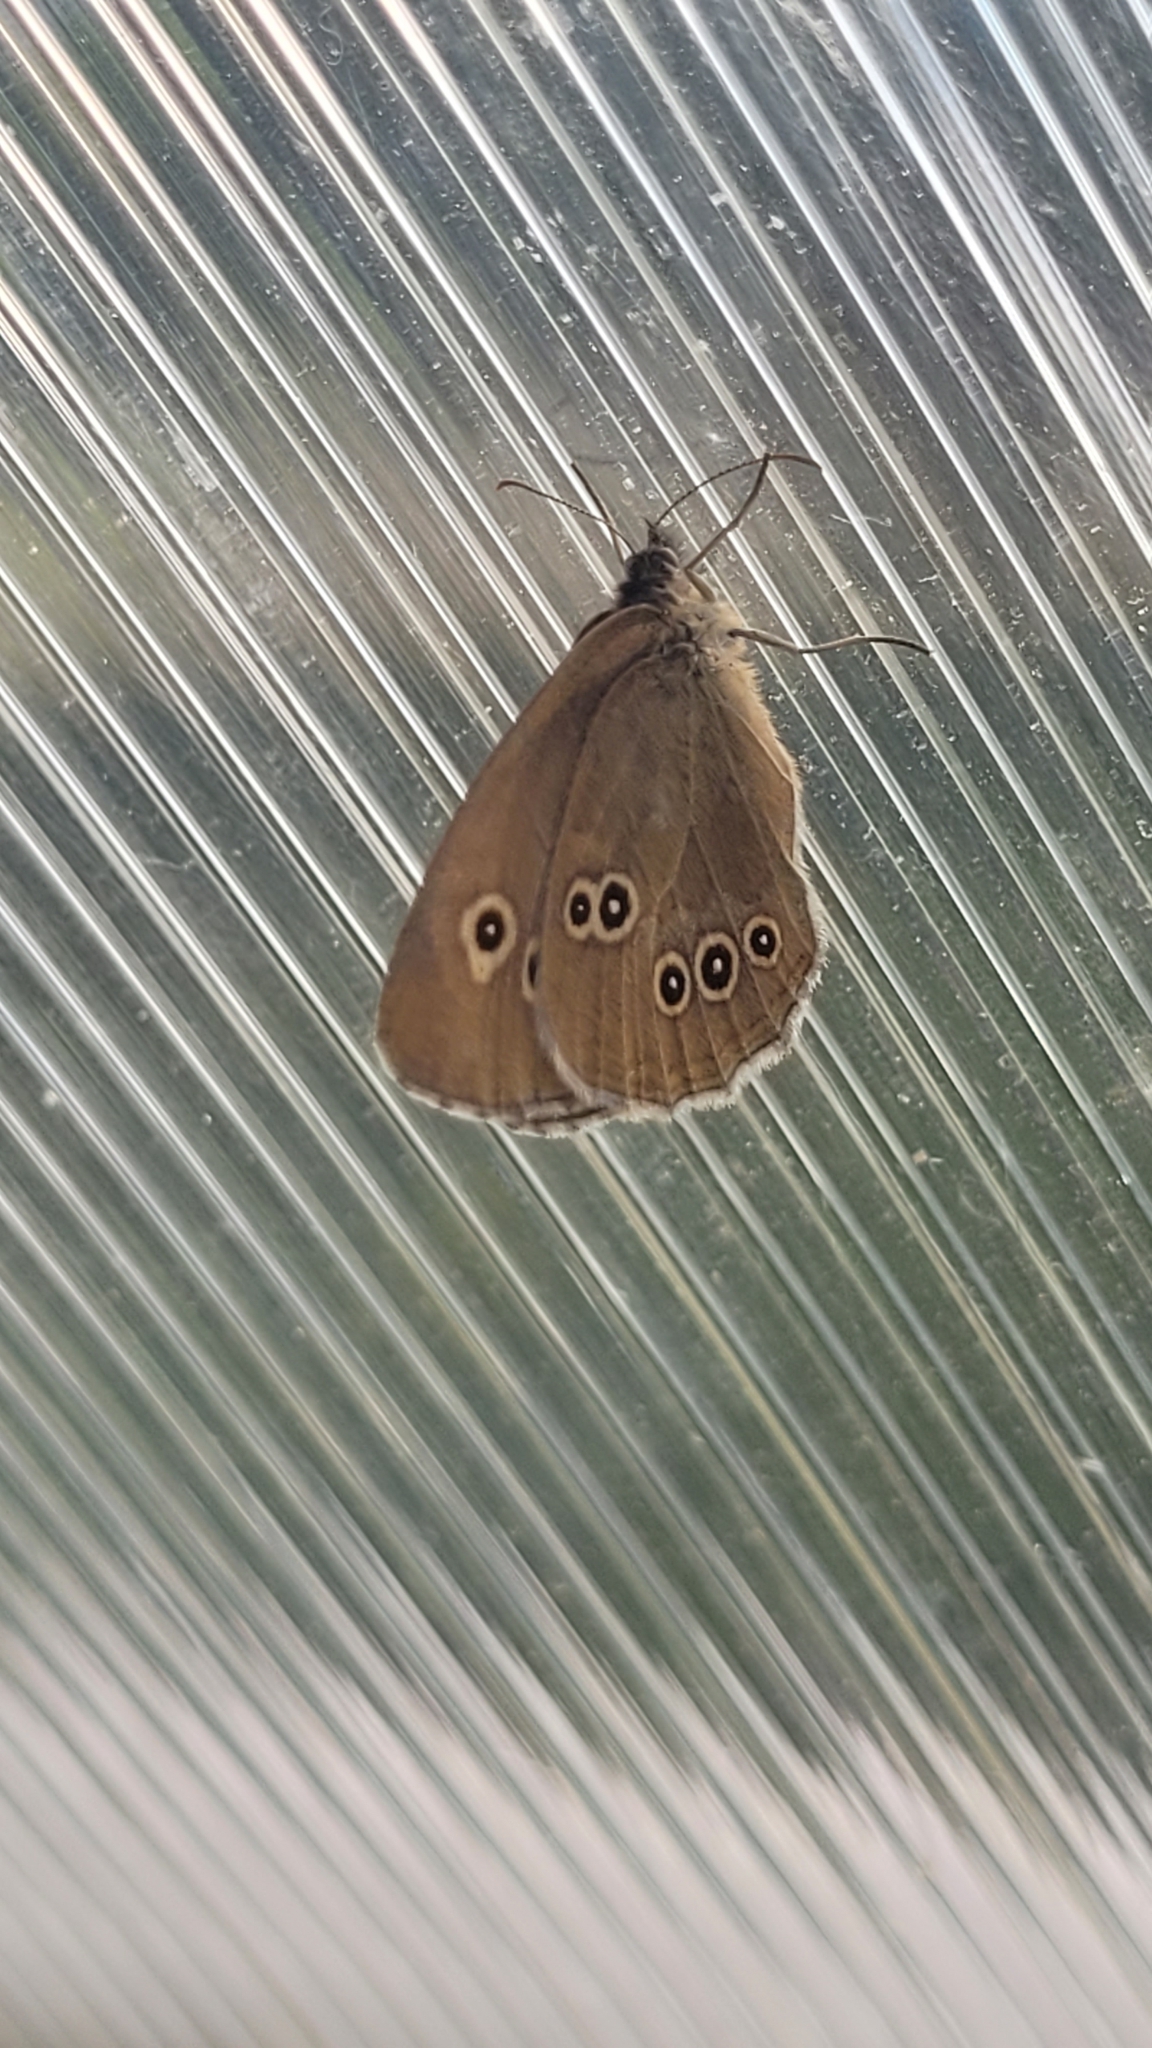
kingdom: Animalia
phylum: Arthropoda
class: Insecta
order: Lepidoptera
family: Nymphalidae
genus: Aphantopus
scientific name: Aphantopus hyperantus
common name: Ringlet
